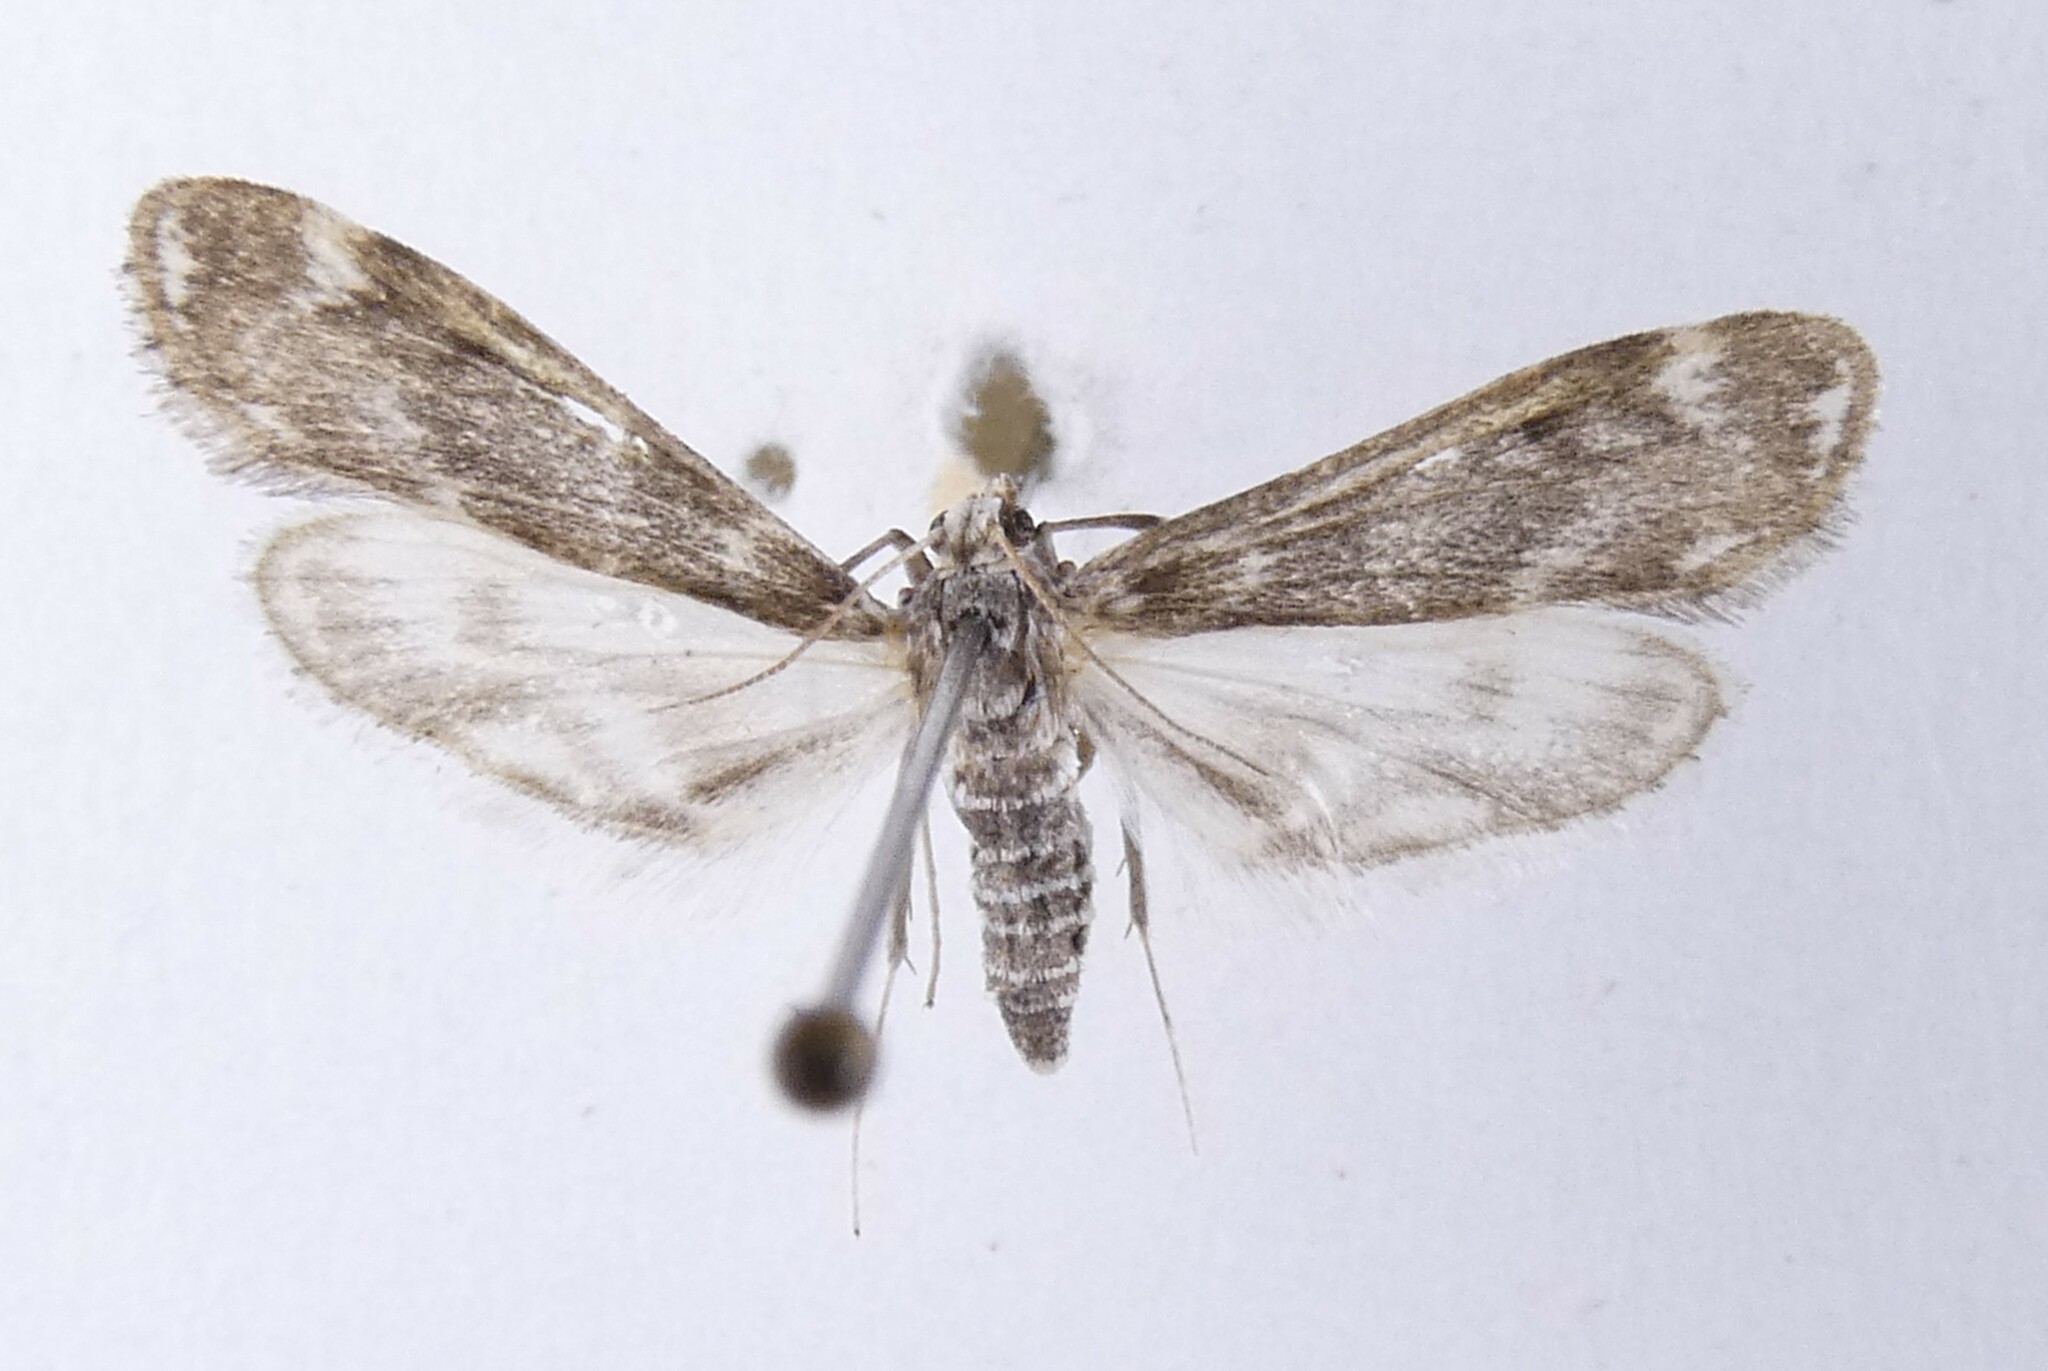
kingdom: Animalia
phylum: Arthropoda
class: Insecta
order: Lepidoptera
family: Crambidae
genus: Hygraula
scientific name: Hygraula nitens
